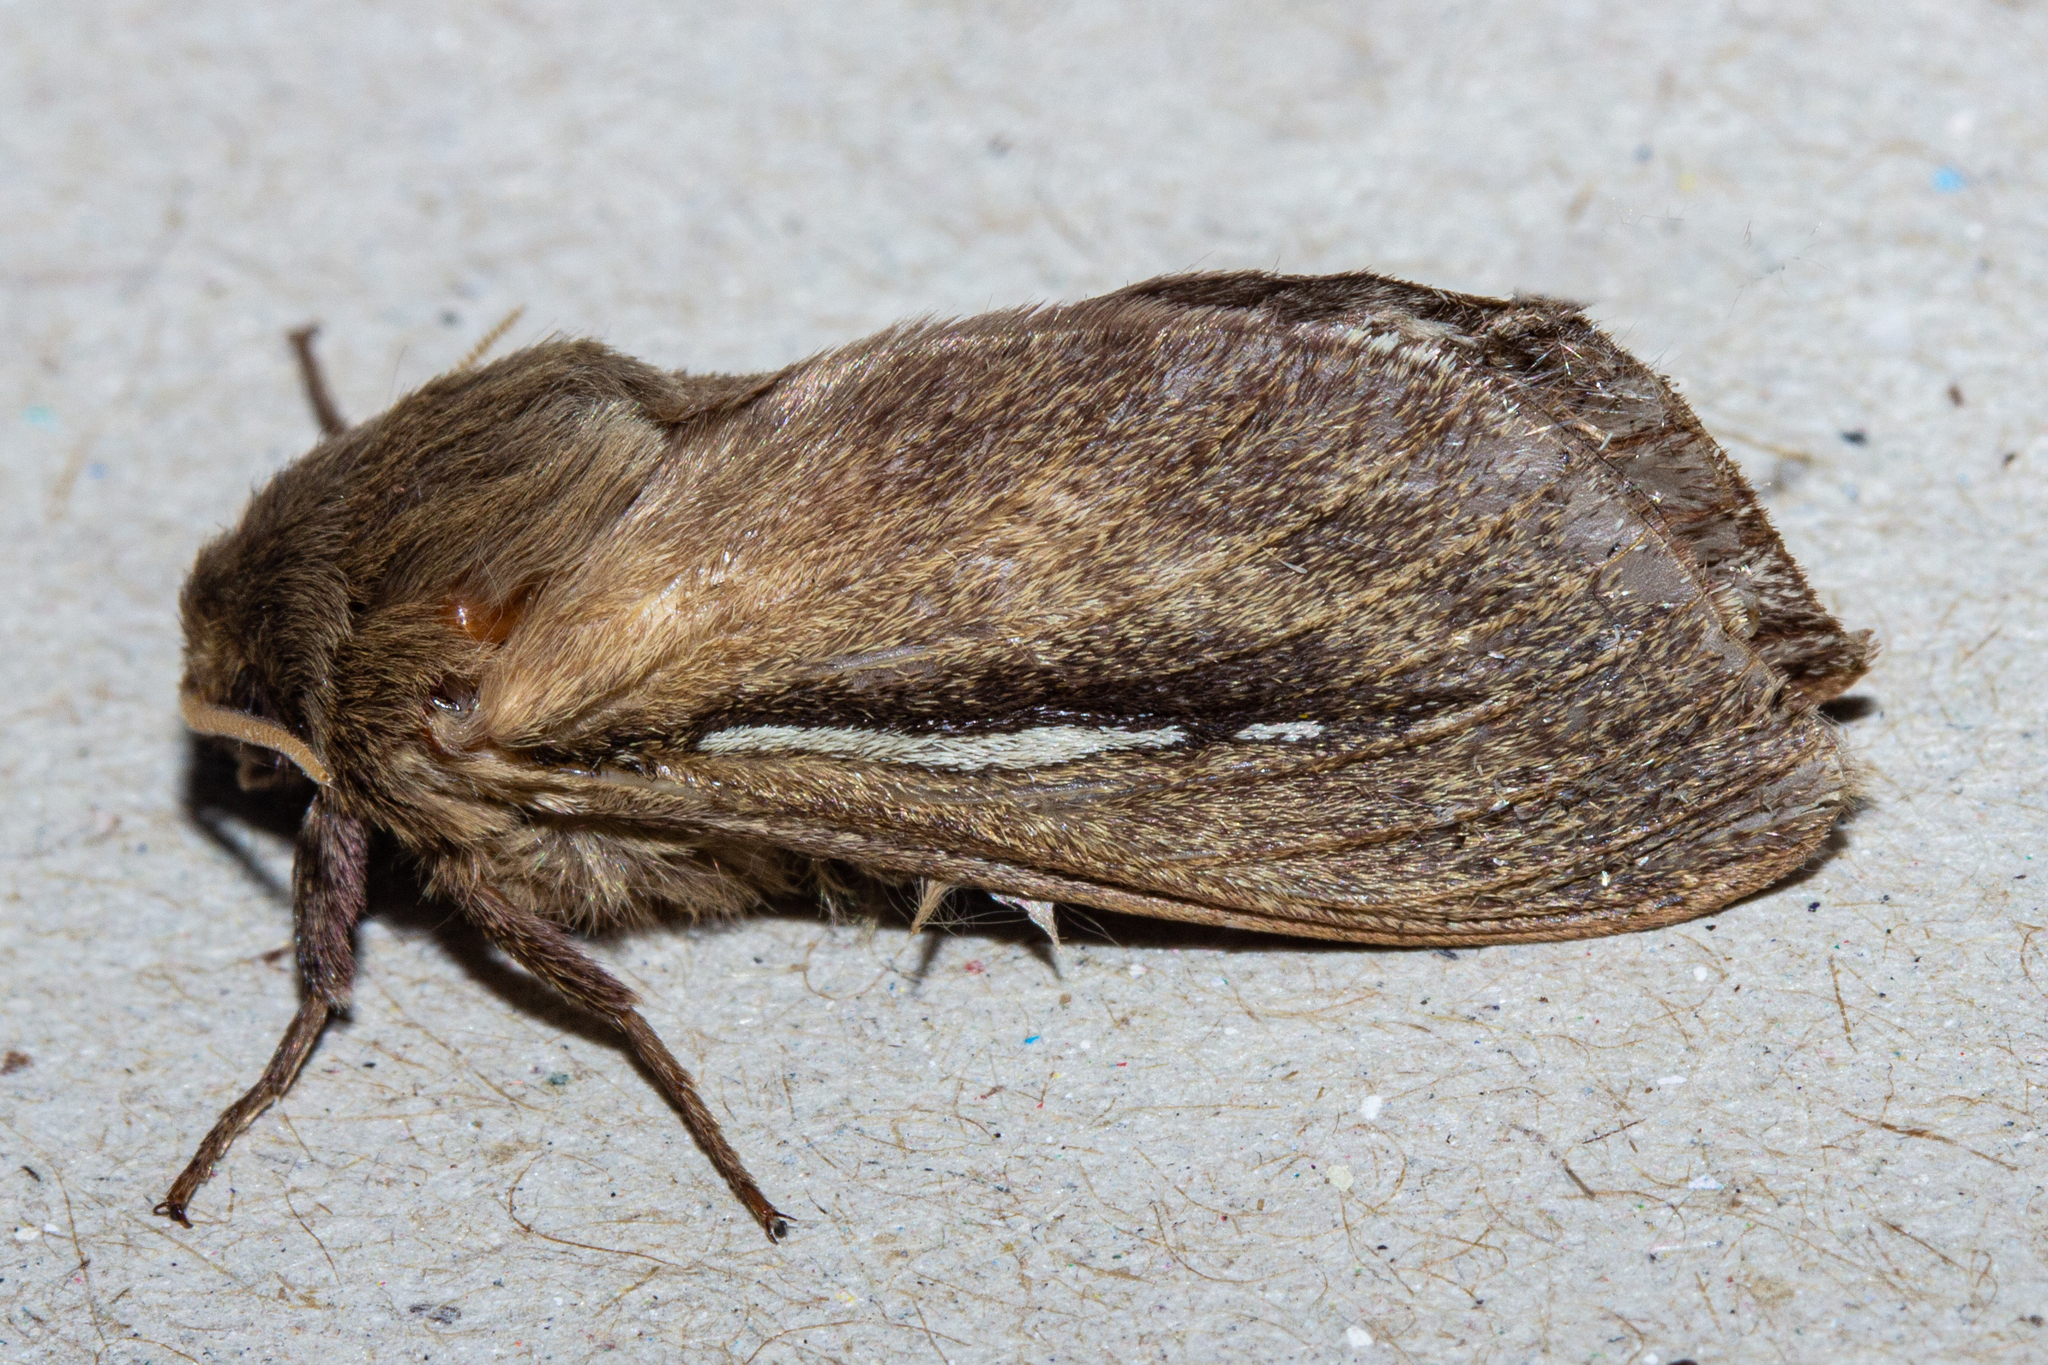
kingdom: Animalia
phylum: Arthropoda
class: Insecta
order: Lepidoptera
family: Hepialidae
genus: Wiseana
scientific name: Wiseana umbraculatus
